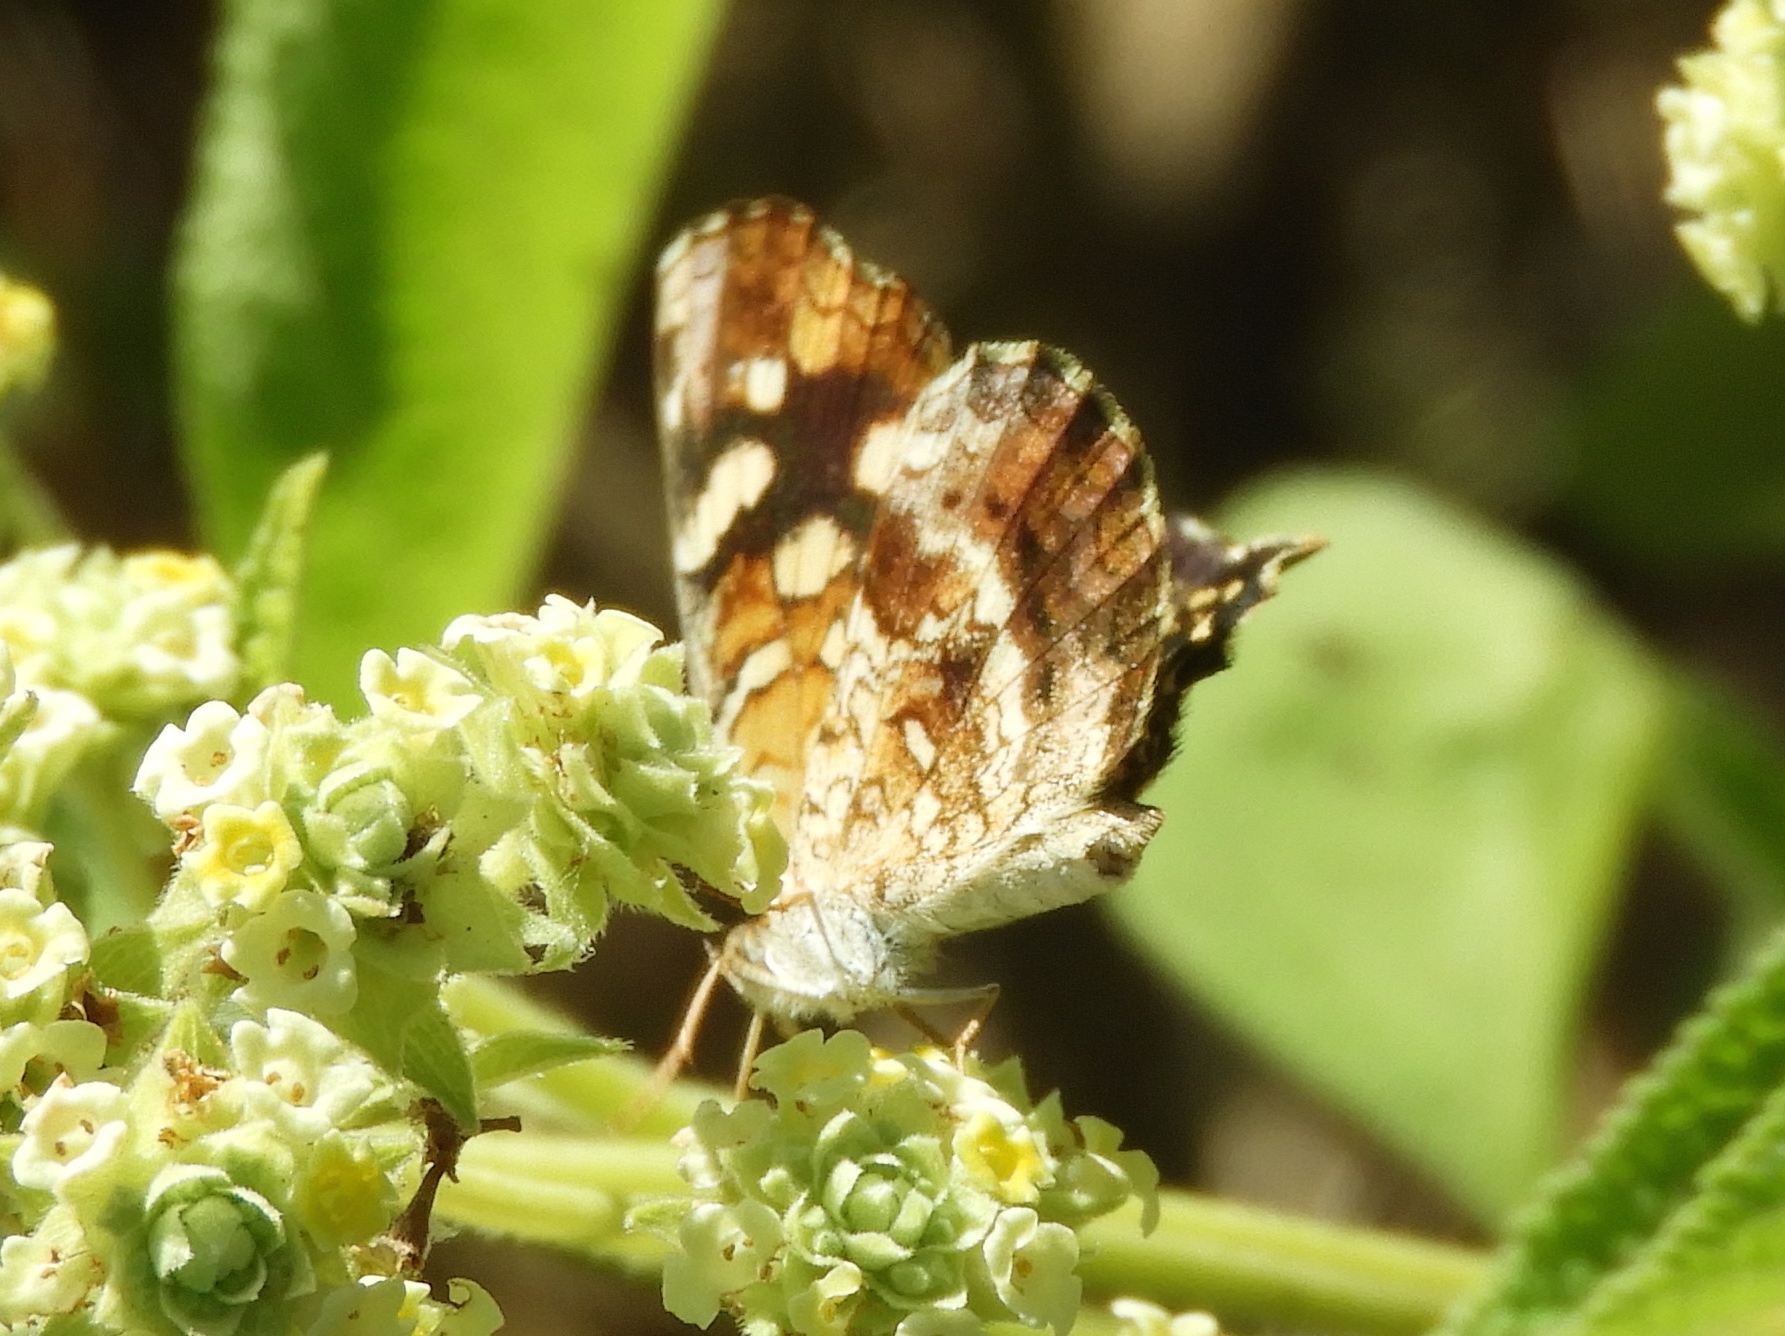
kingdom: Animalia
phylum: Arthropoda
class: Insecta
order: Lepidoptera
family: Nymphalidae
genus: Anthanassa
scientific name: Anthanassa
